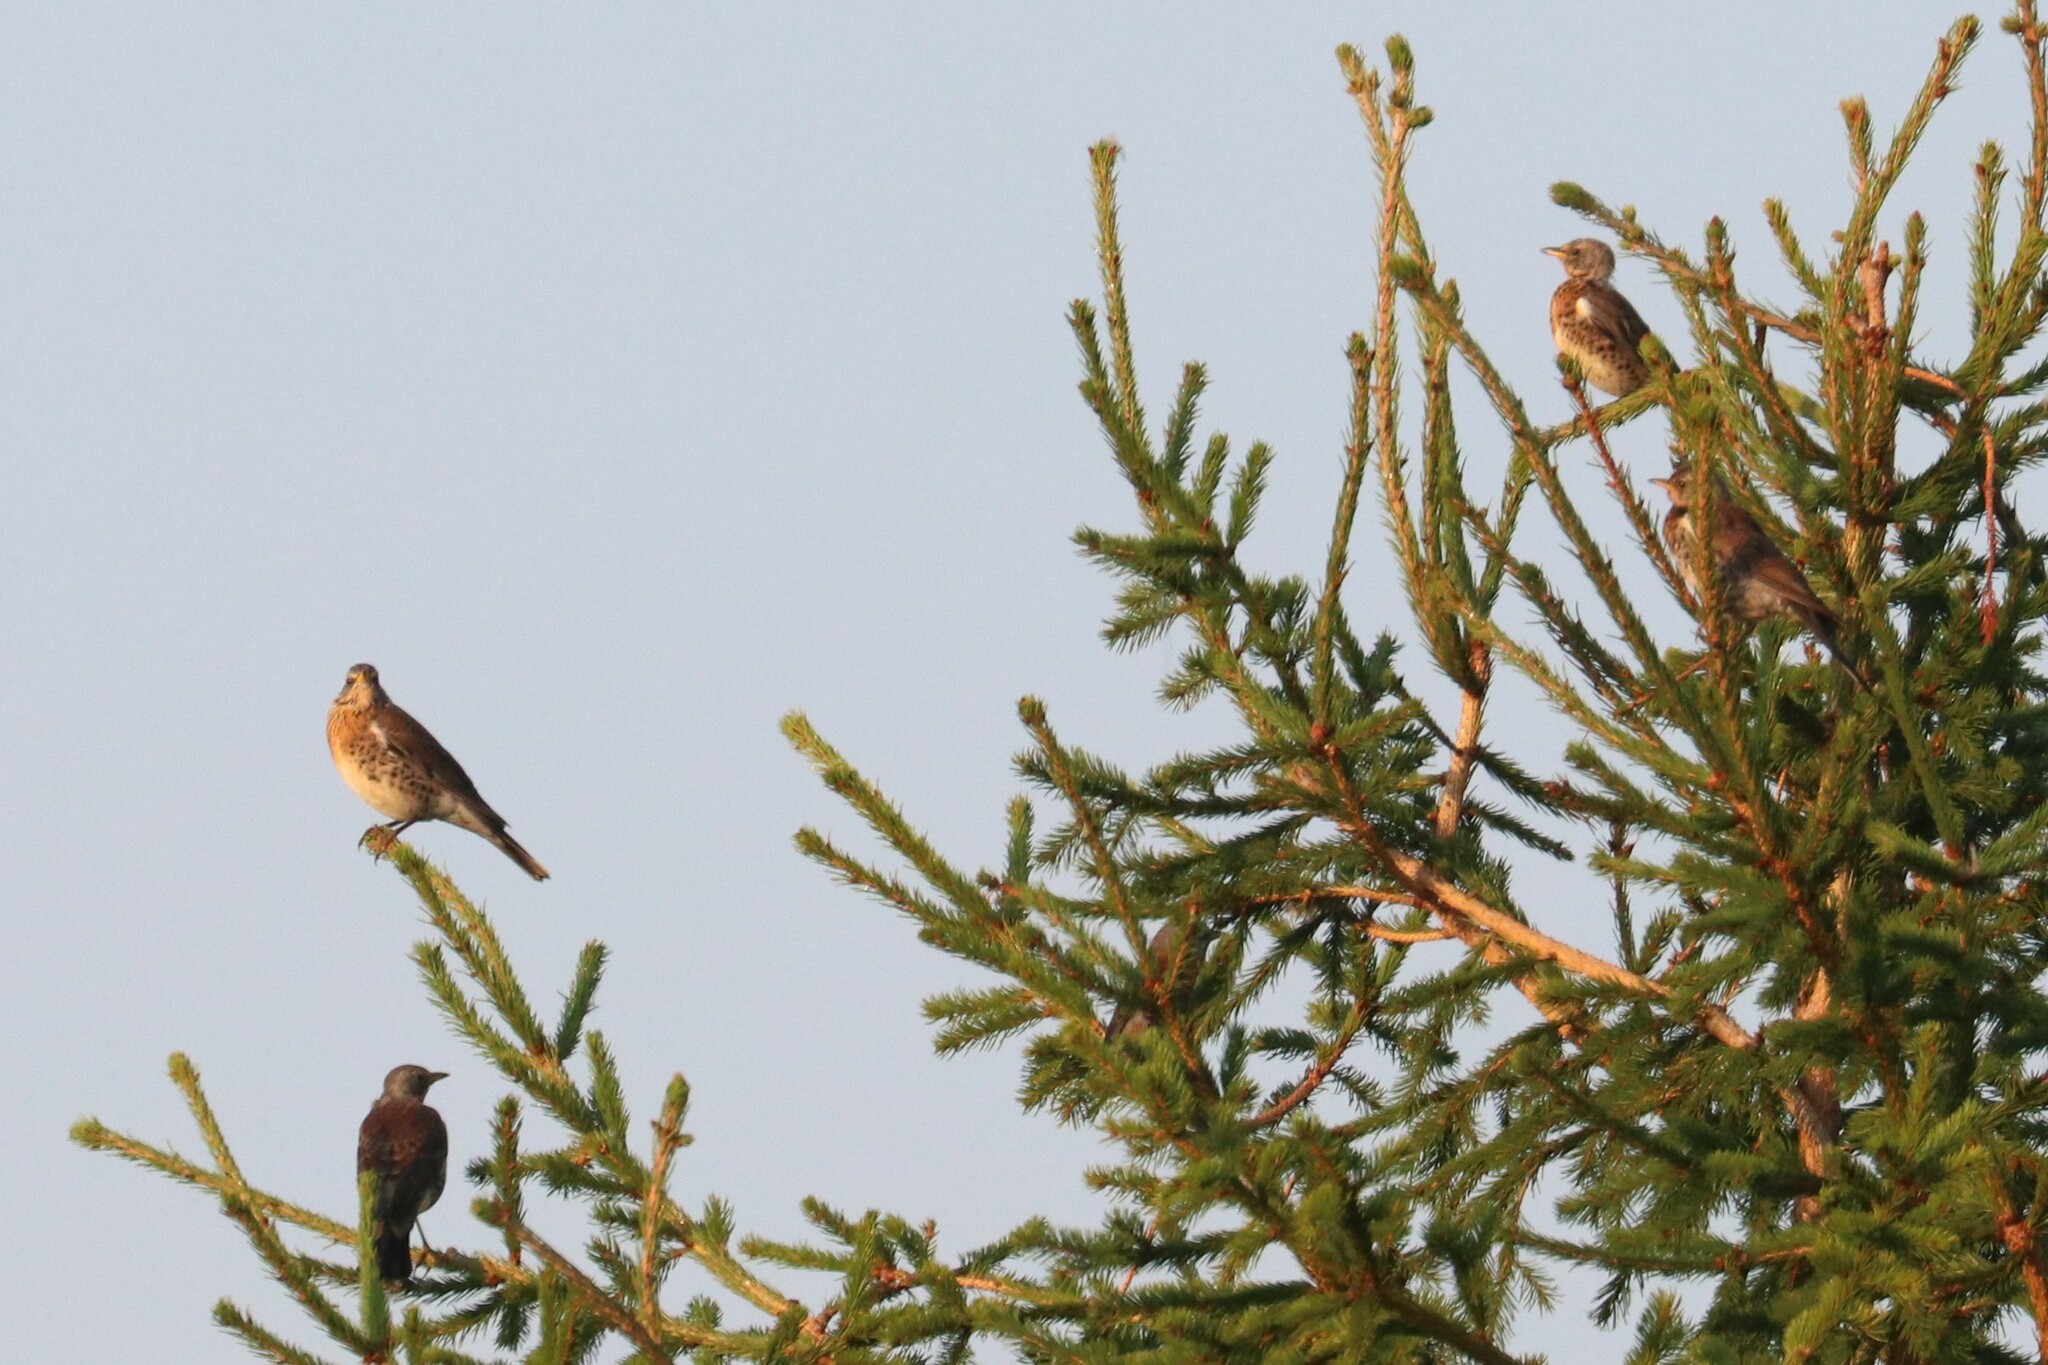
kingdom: Animalia
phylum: Chordata
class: Aves
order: Passeriformes
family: Turdidae
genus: Turdus
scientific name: Turdus pilaris
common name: Fieldfare
